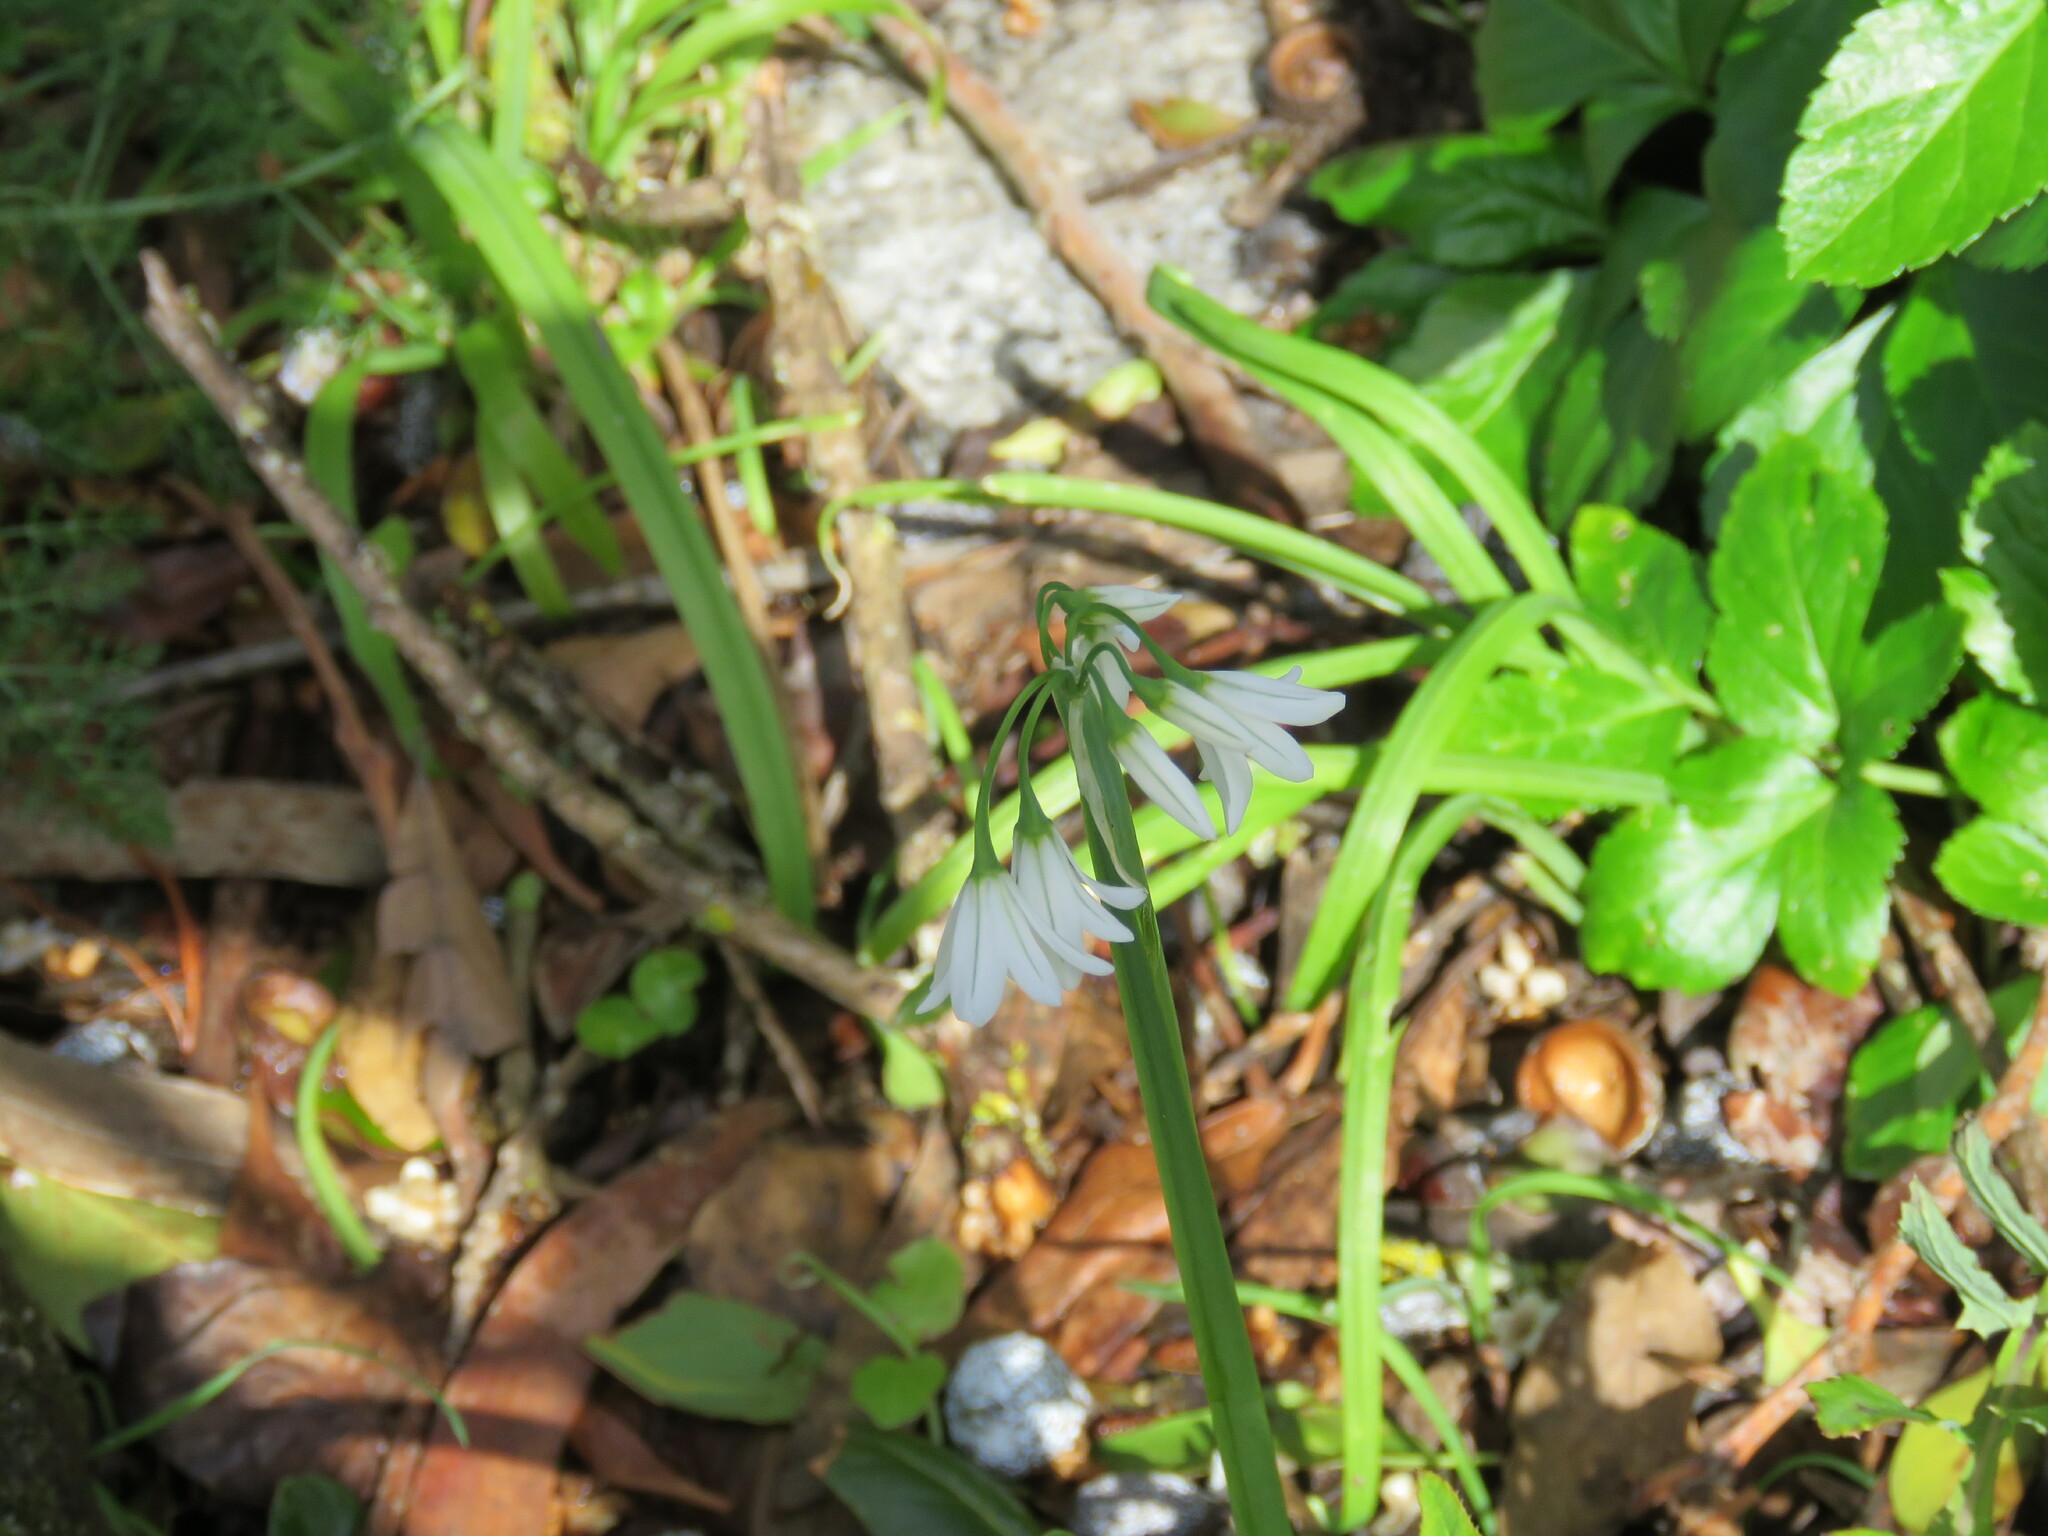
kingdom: Plantae
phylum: Tracheophyta
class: Liliopsida
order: Asparagales
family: Amaryllidaceae
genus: Allium
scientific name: Allium triquetrum
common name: Three-cornered garlic
